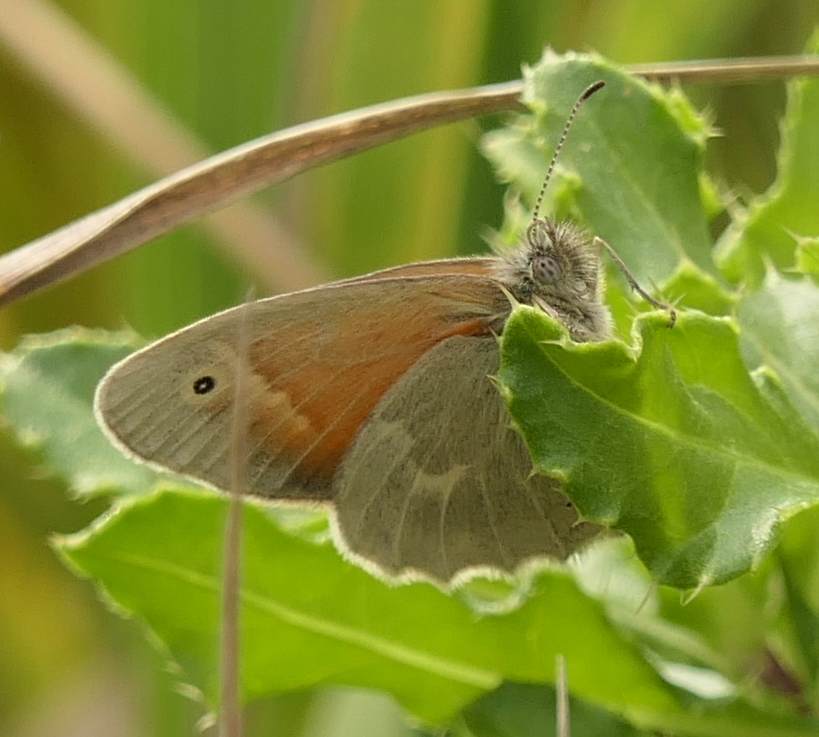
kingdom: Animalia
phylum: Arthropoda
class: Insecta
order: Lepidoptera
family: Nymphalidae
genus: Coenonympha
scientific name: Coenonympha california
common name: Common ringlet
